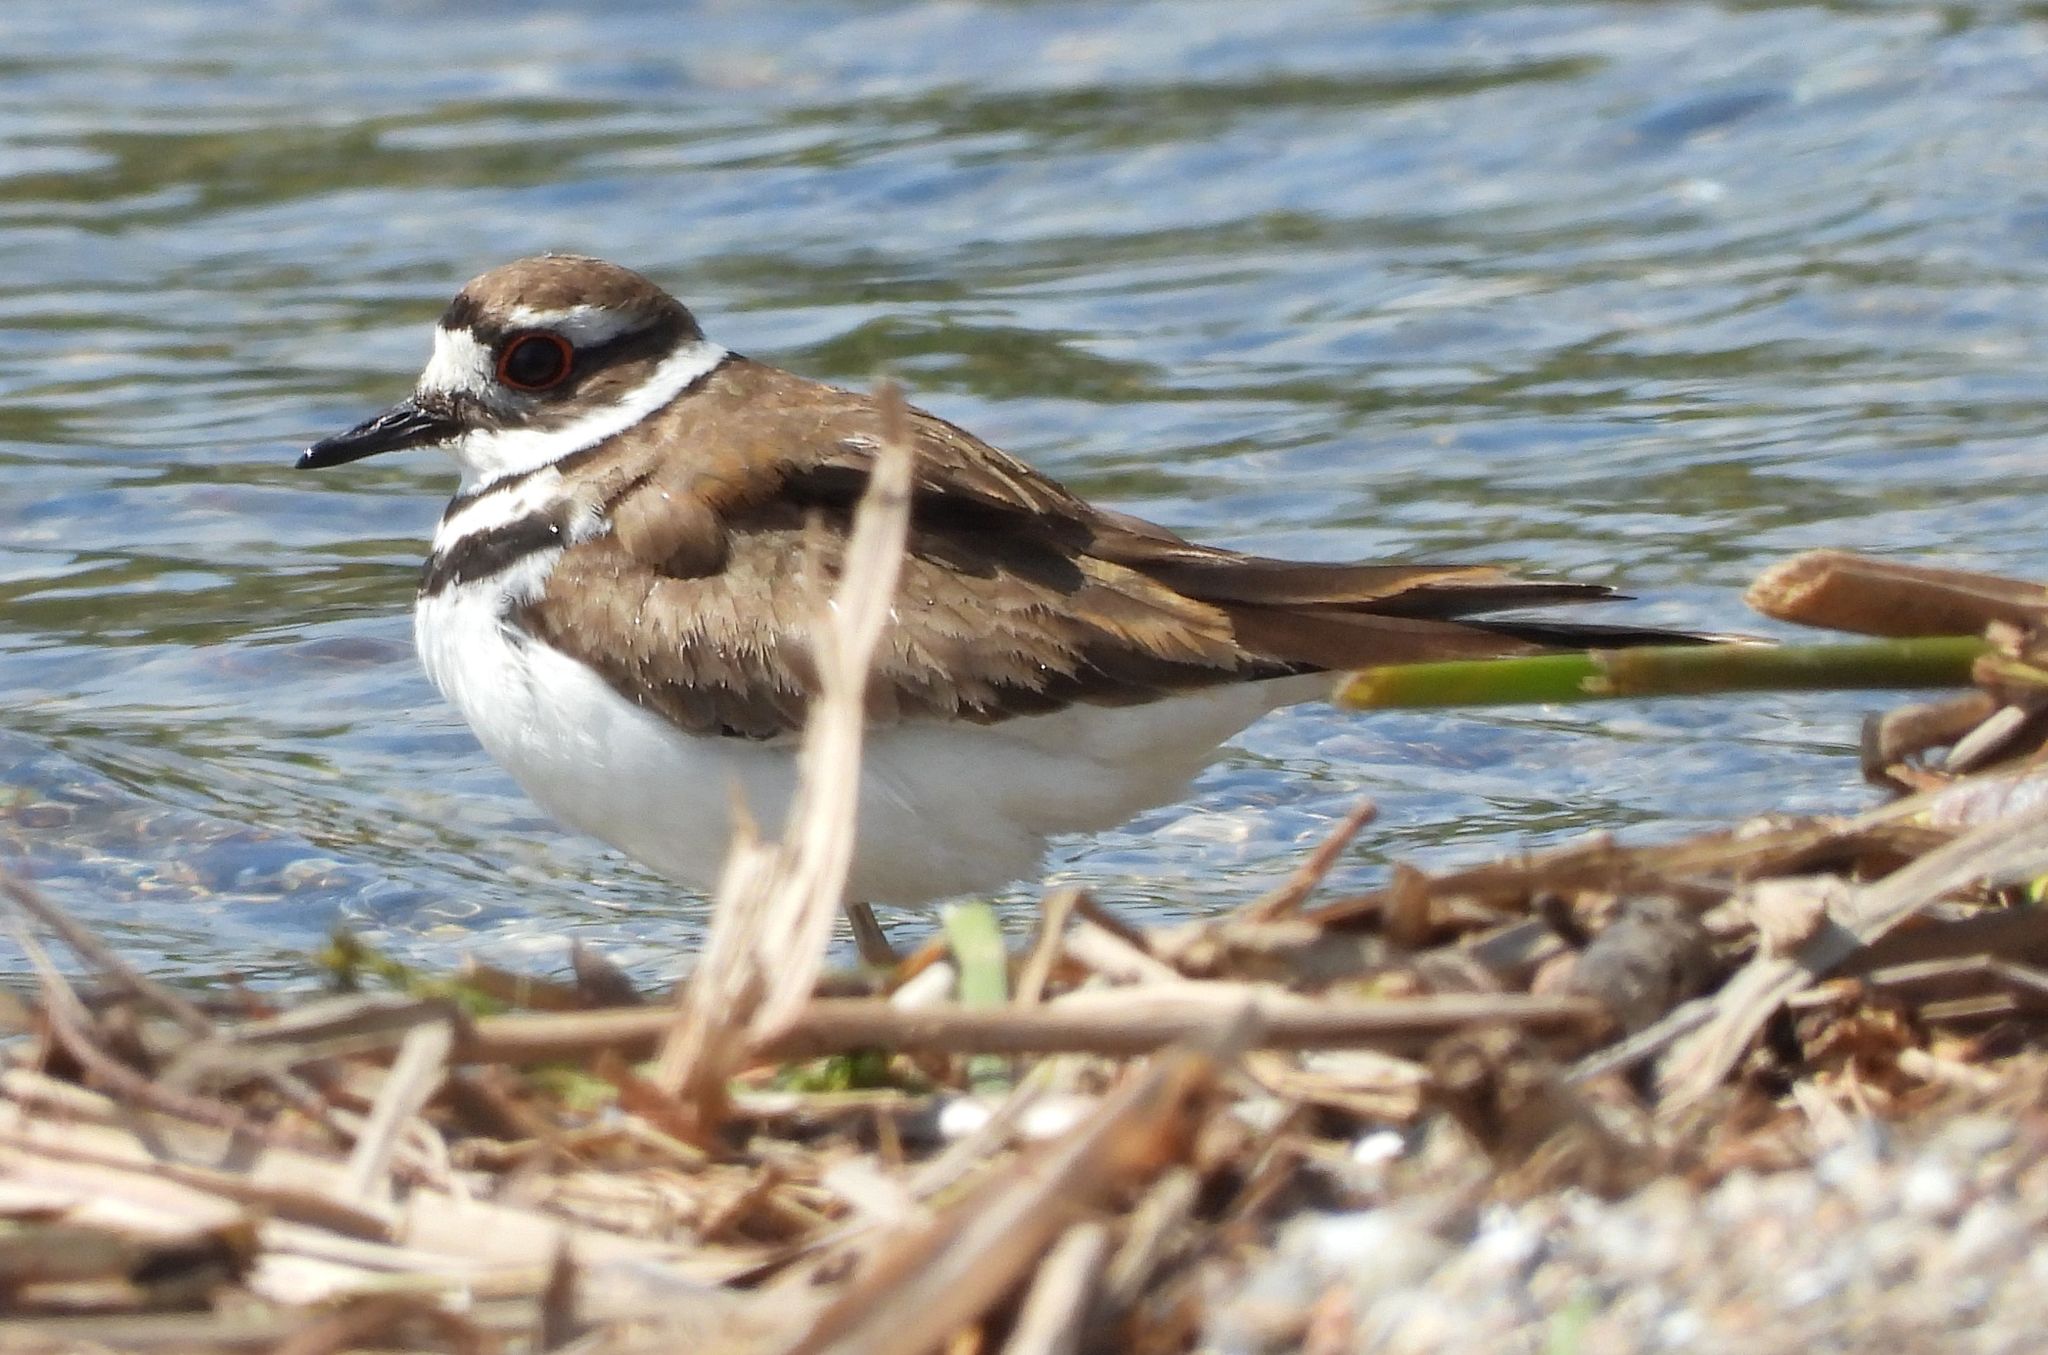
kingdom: Animalia
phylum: Chordata
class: Aves
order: Charadriiformes
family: Charadriidae
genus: Charadrius
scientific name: Charadrius vociferus
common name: Killdeer
